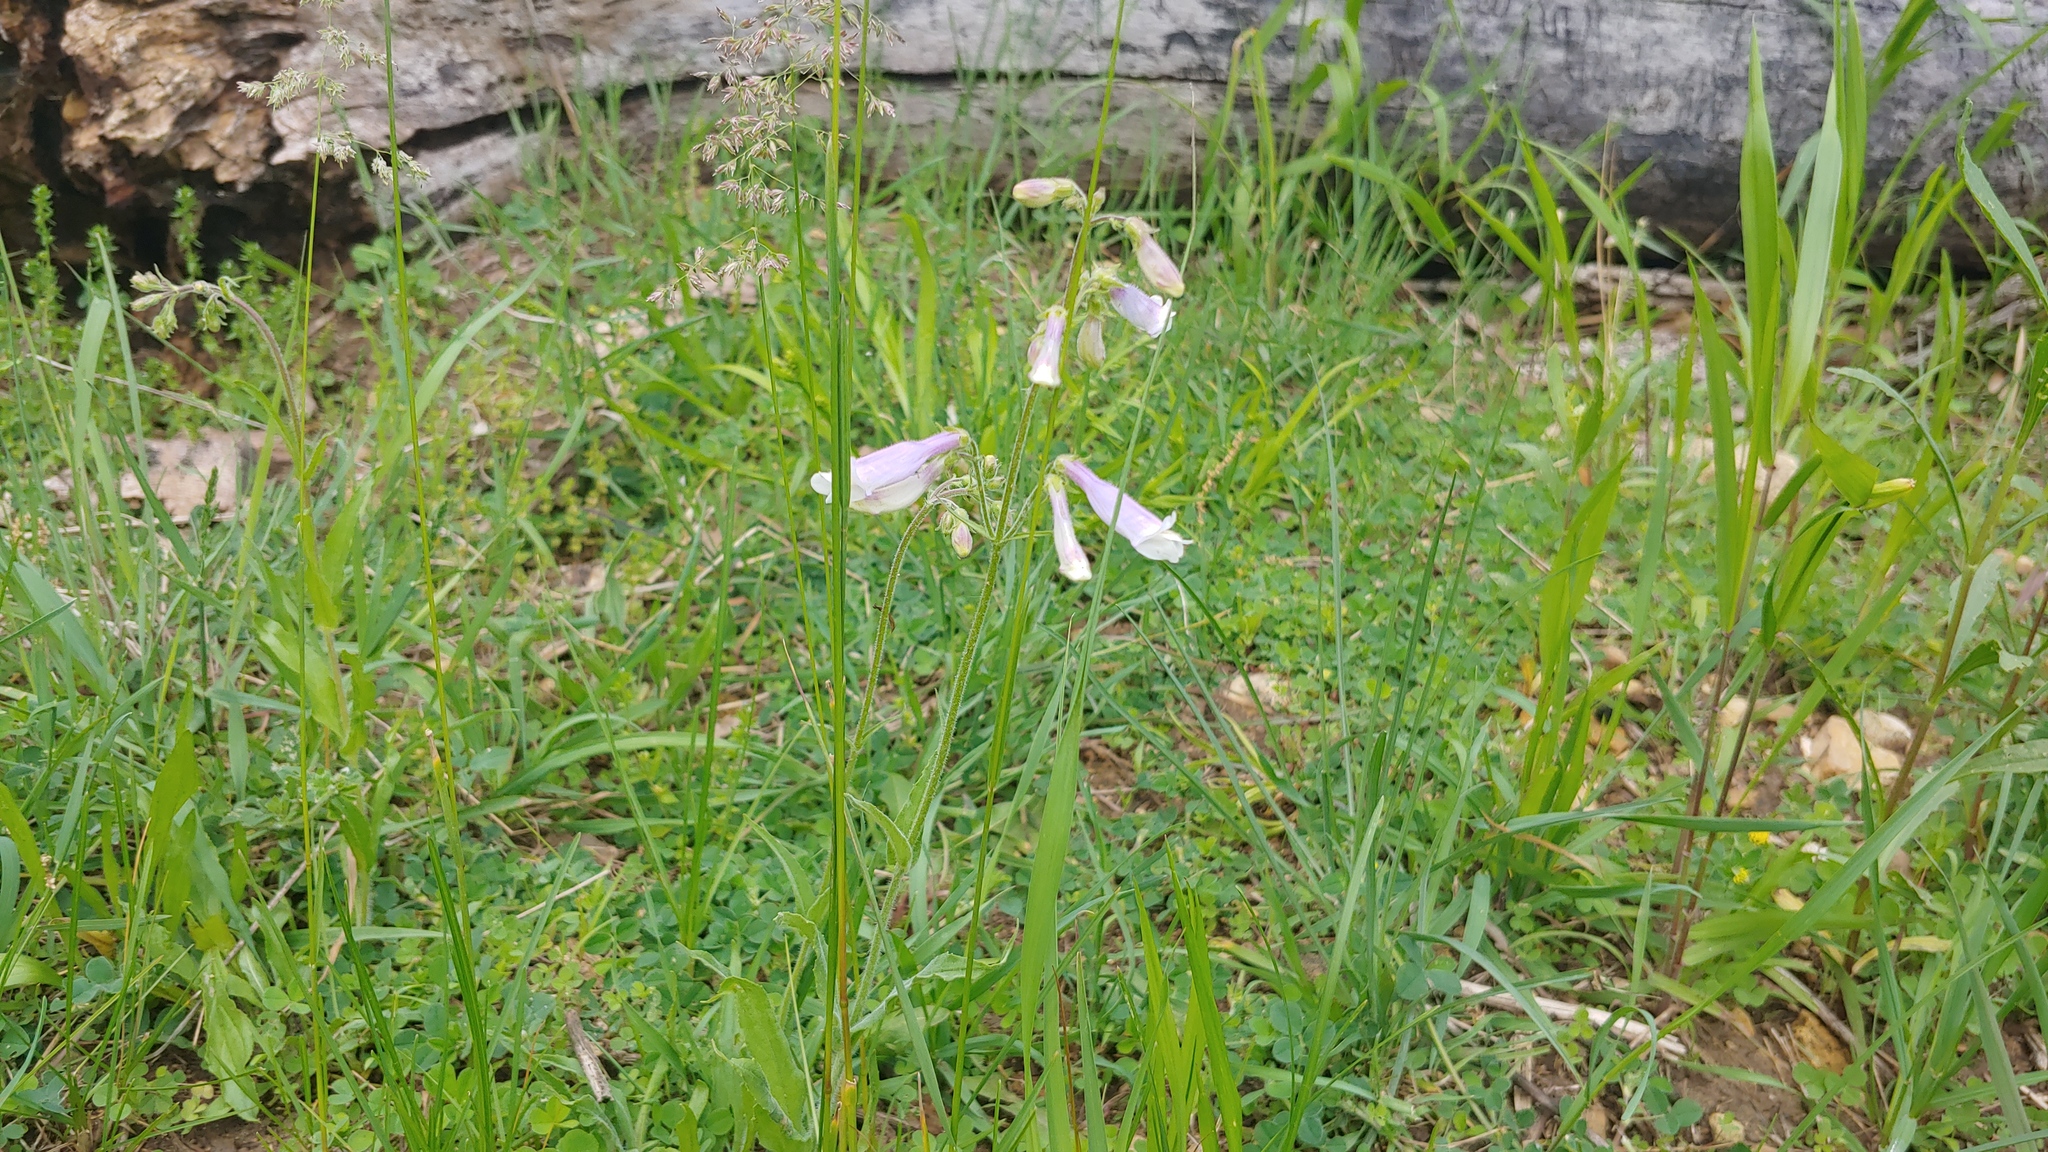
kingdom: Plantae
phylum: Tracheophyta
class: Magnoliopsida
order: Lamiales
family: Plantaginaceae
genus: Penstemon
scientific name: Penstemon hirsutus
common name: Hairy beardtongue
